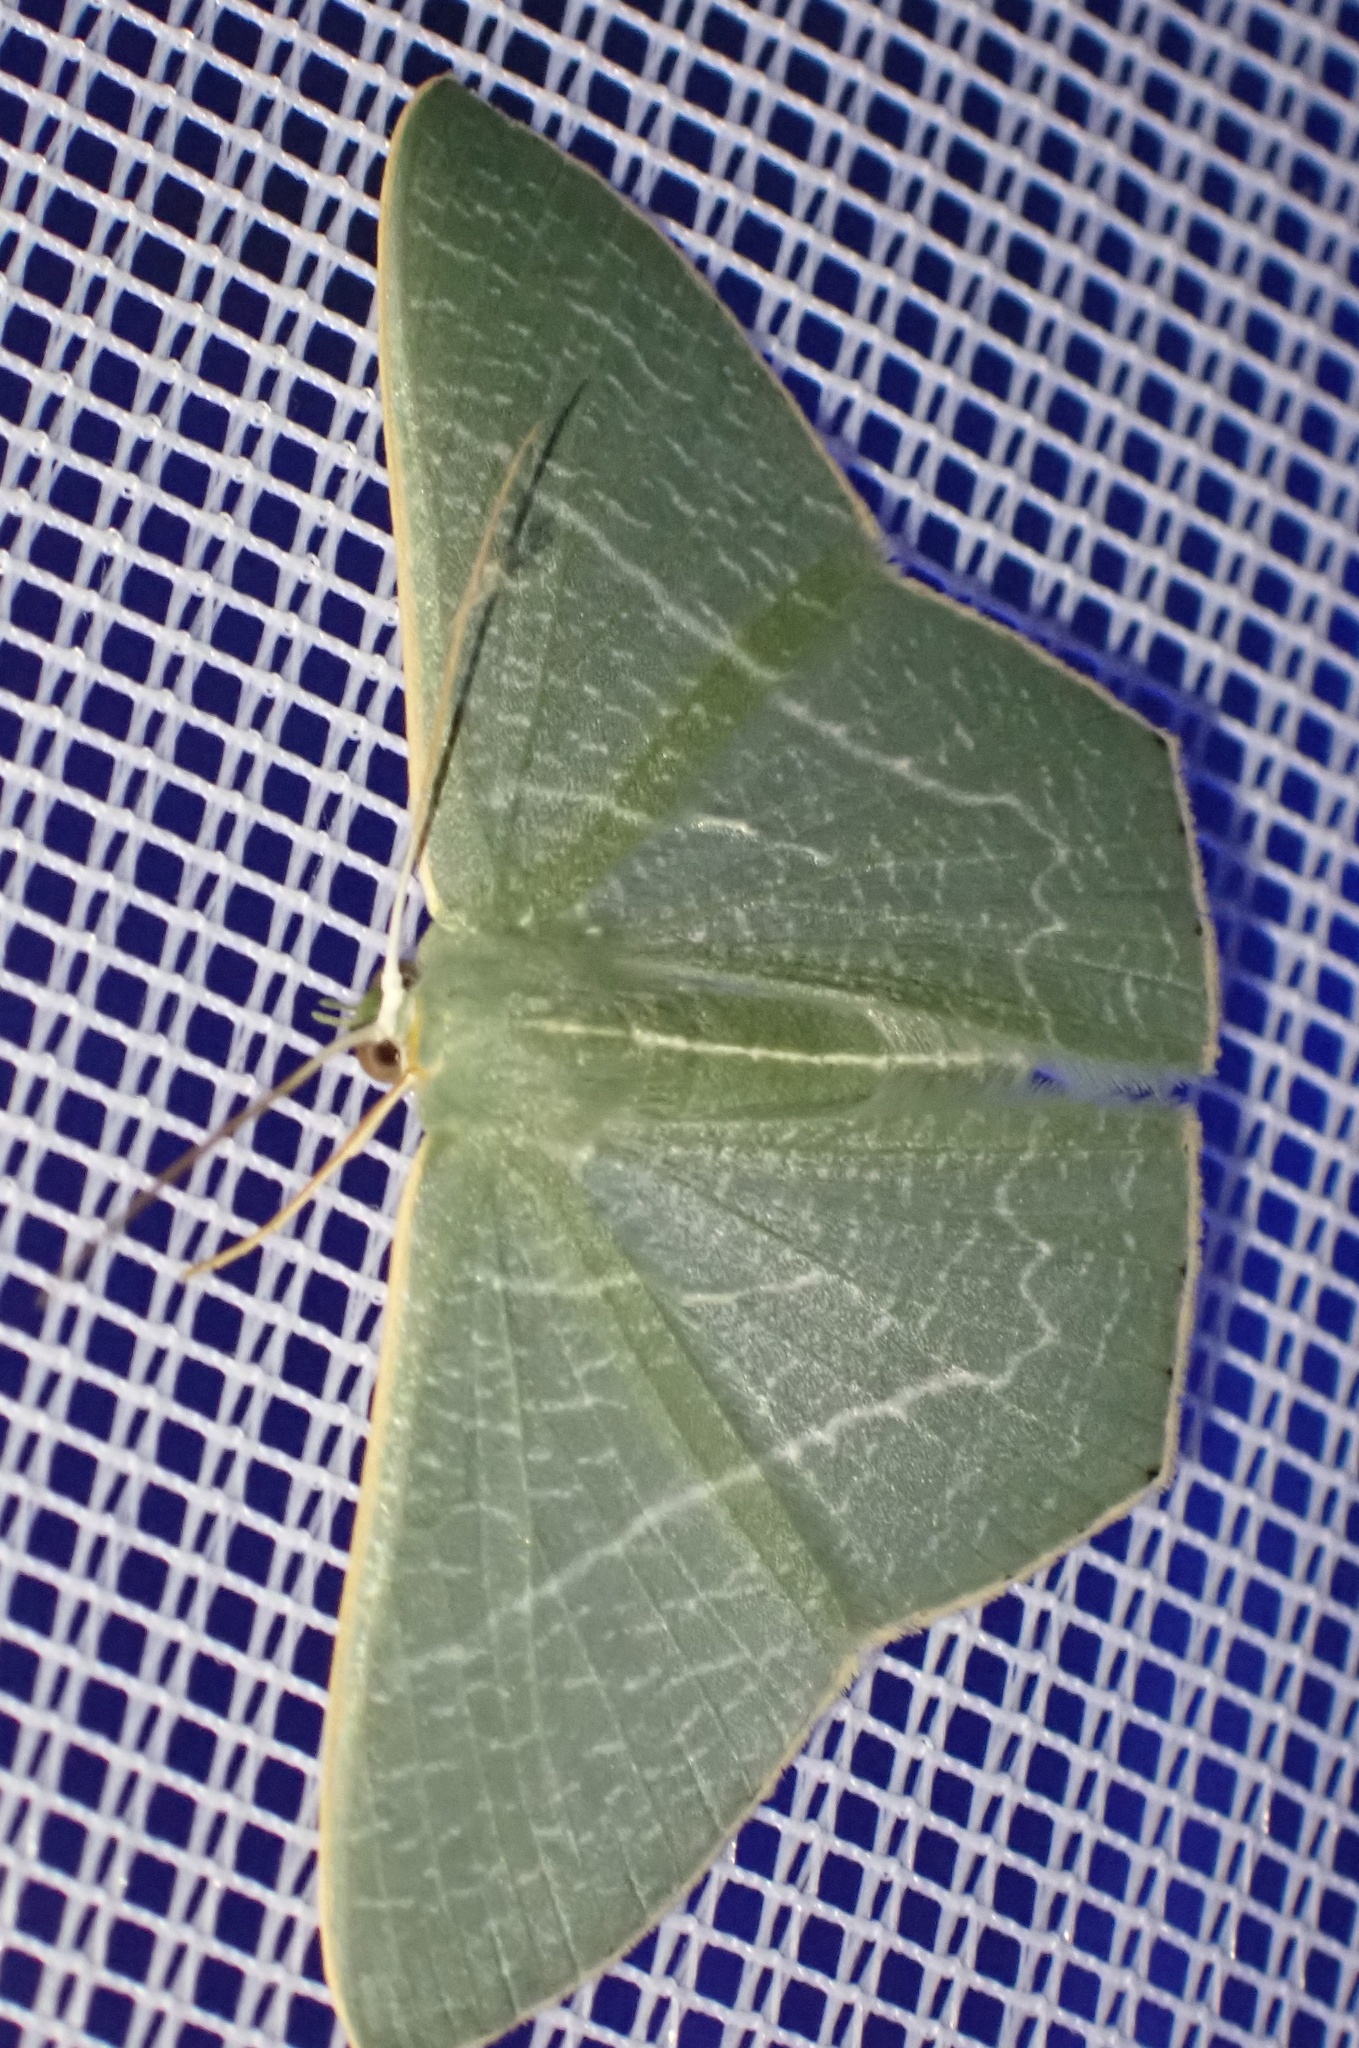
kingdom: Animalia
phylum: Arthropoda
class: Insecta
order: Lepidoptera
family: Geometridae
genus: Thalassodes
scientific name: Thalassodes dorsilinea
